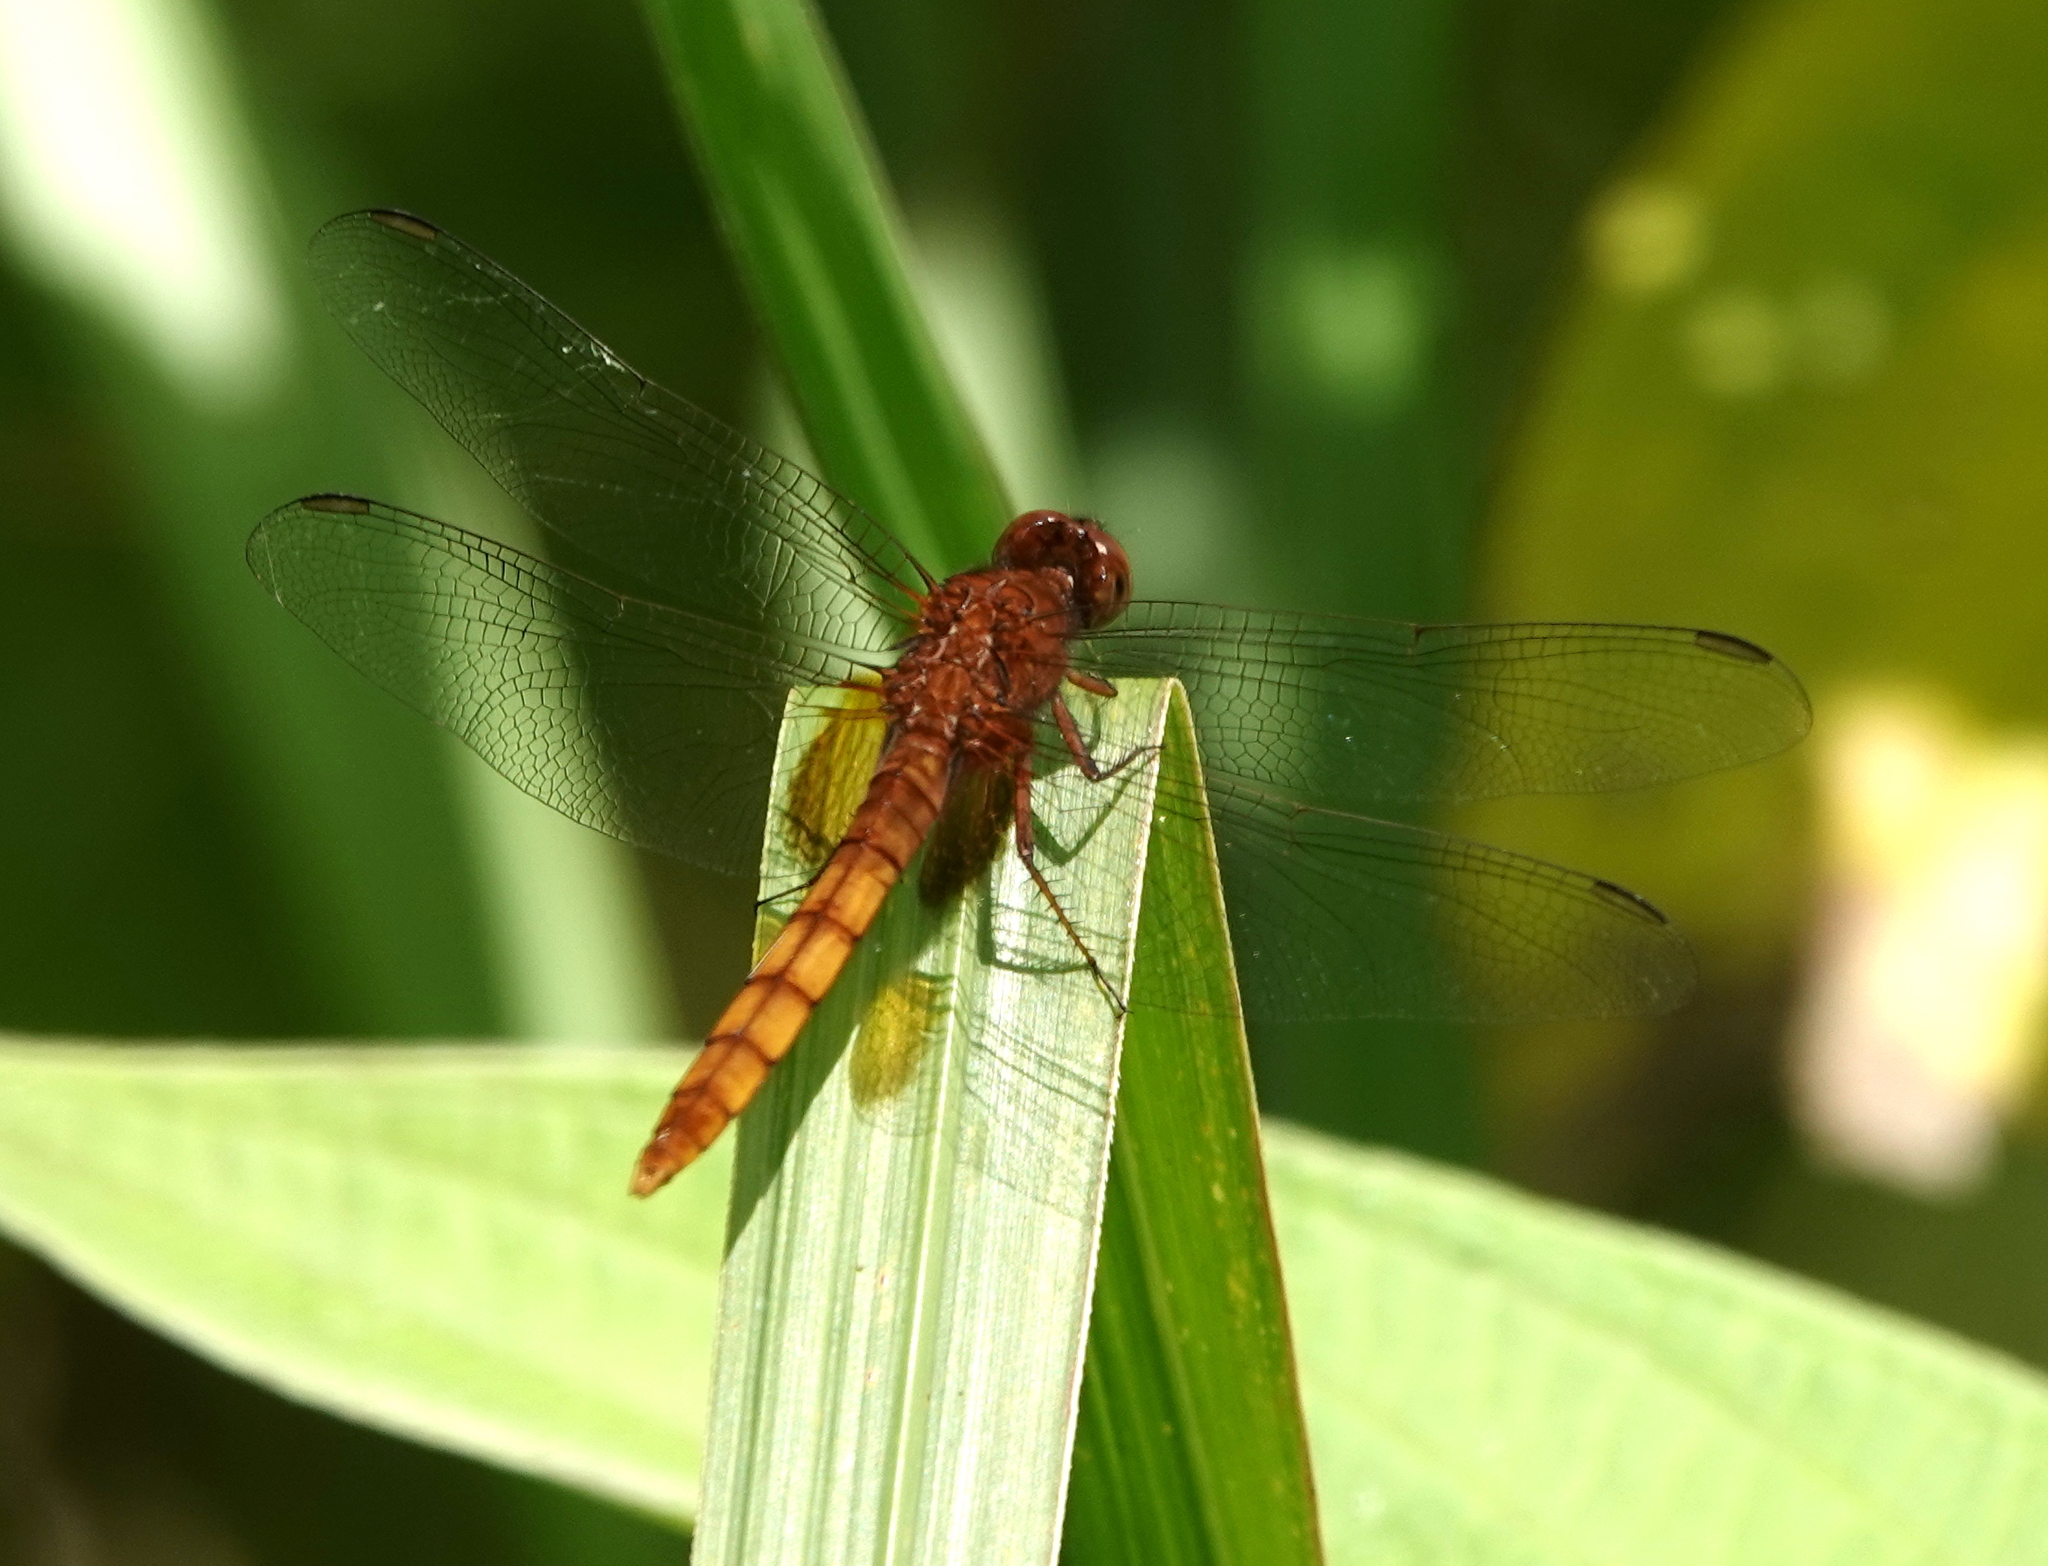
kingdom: Animalia
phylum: Arthropoda
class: Insecta
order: Odonata
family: Libellulidae
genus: Erythemis
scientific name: Erythemis mithroides
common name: Claret pondhawk
